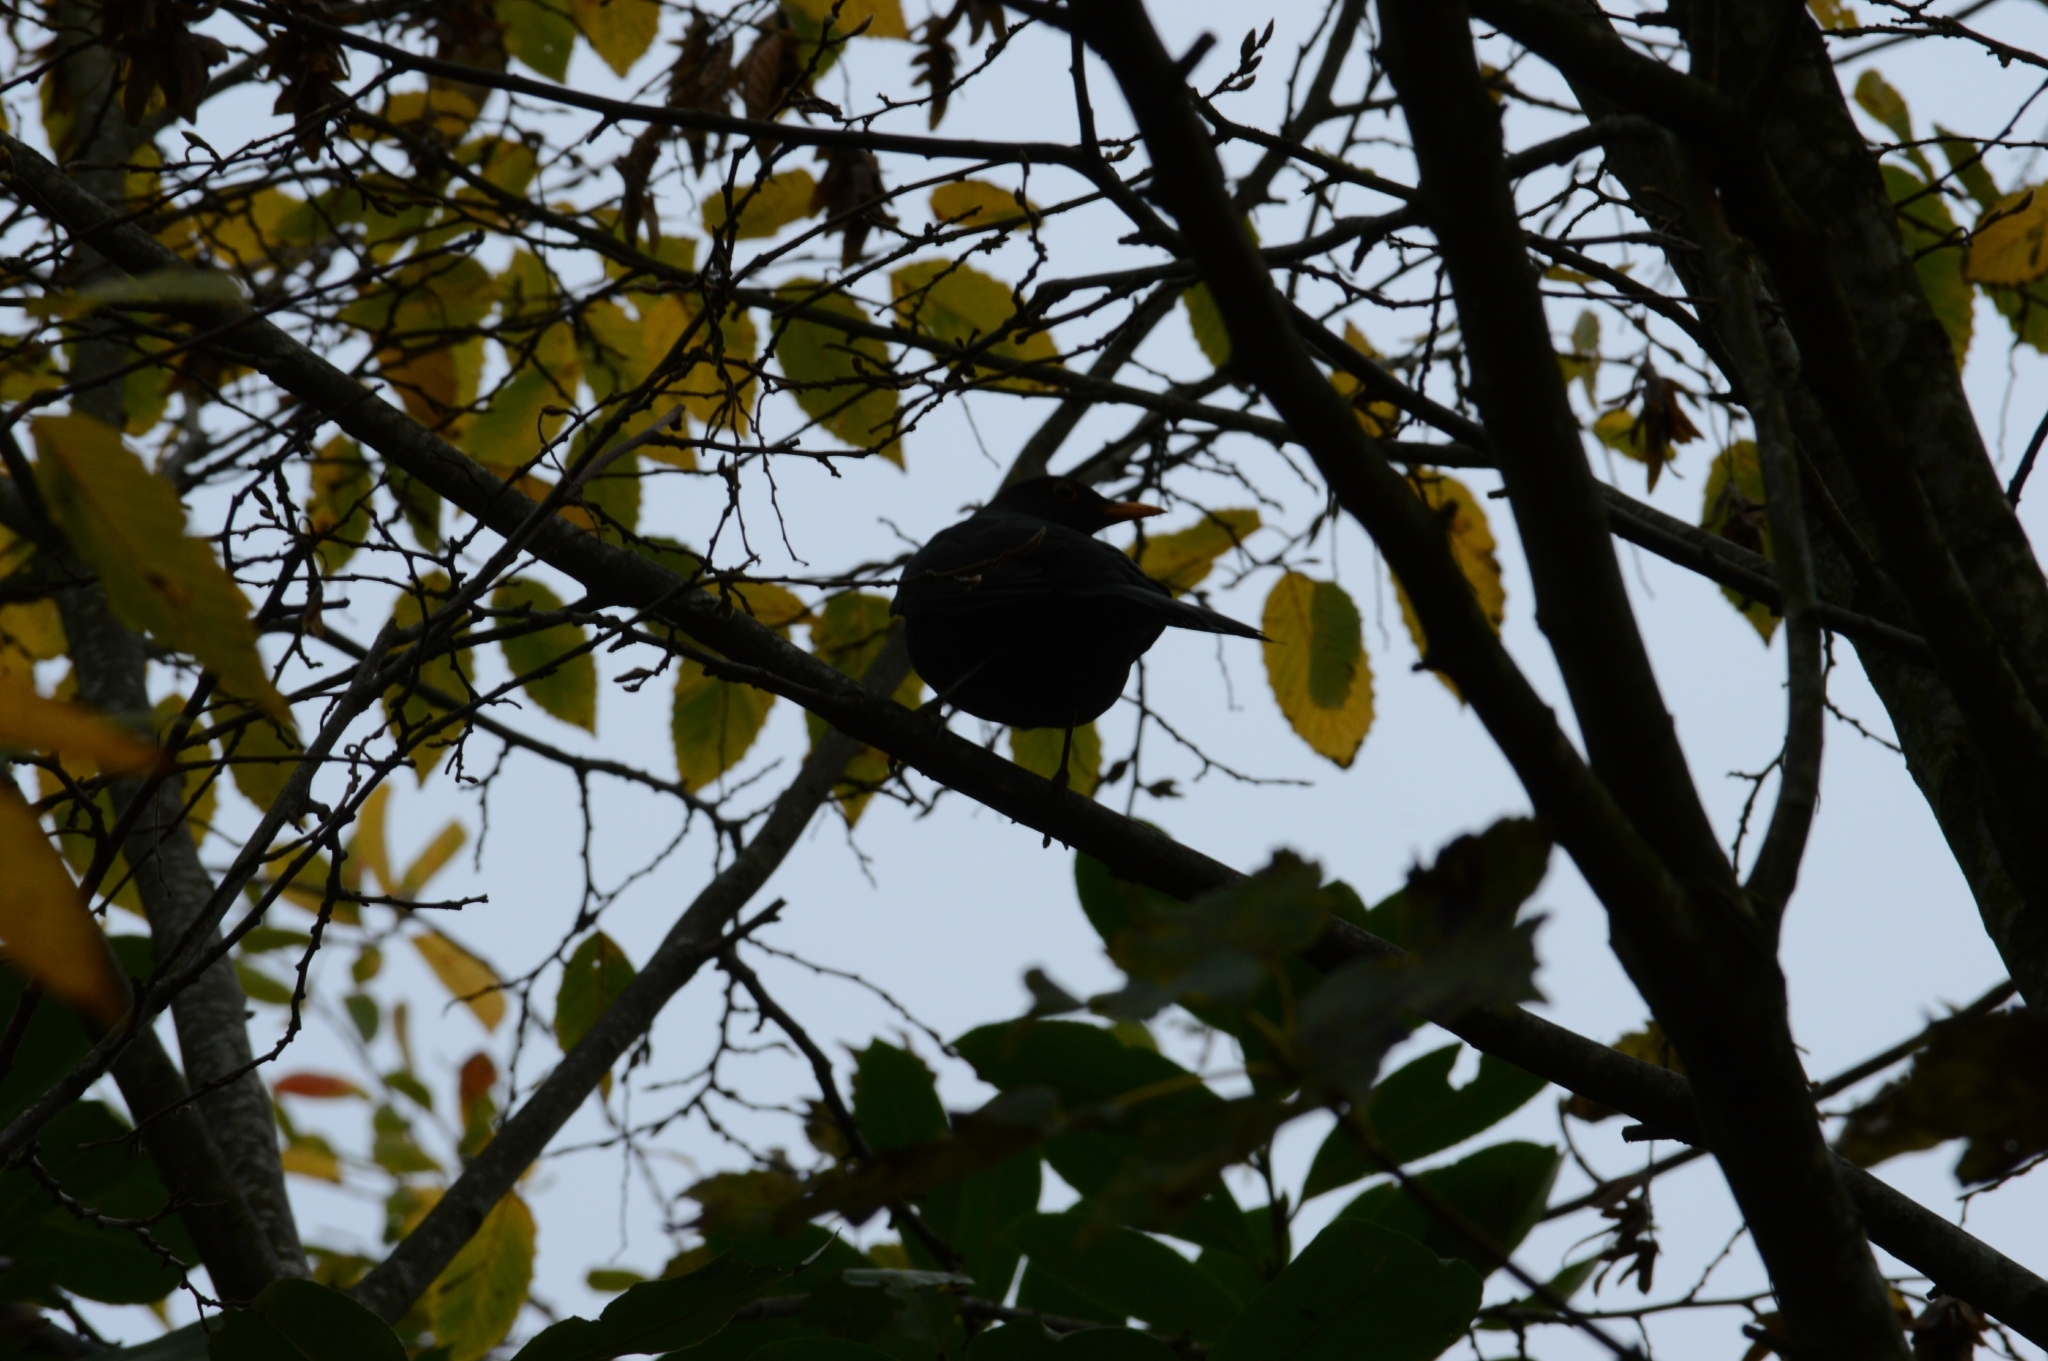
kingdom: Animalia
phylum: Chordata
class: Aves
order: Passeriformes
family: Turdidae
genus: Turdus
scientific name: Turdus merula
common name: Common blackbird
